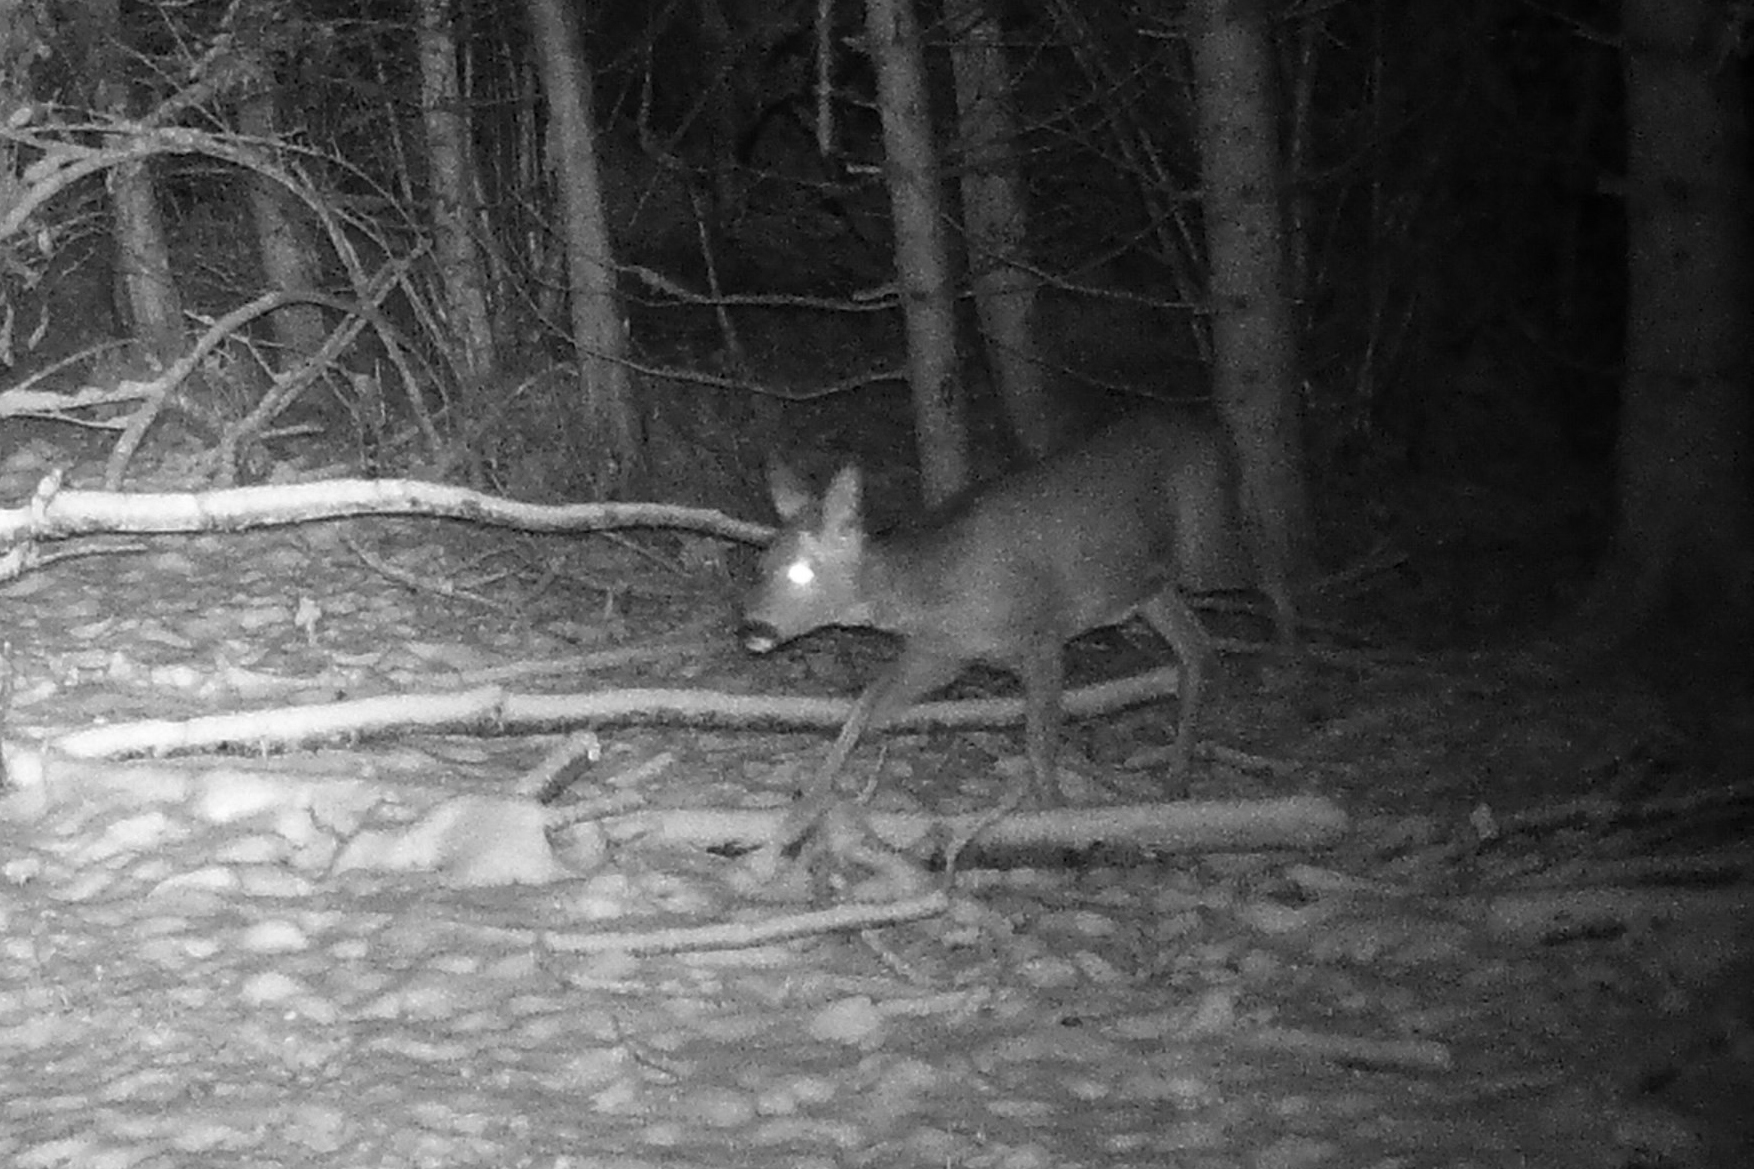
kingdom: Animalia
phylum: Chordata
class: Mammalia
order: Artiodactyla
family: Cervidae
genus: Capreolus
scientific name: Capreolus capreolus
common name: Western roe deer
